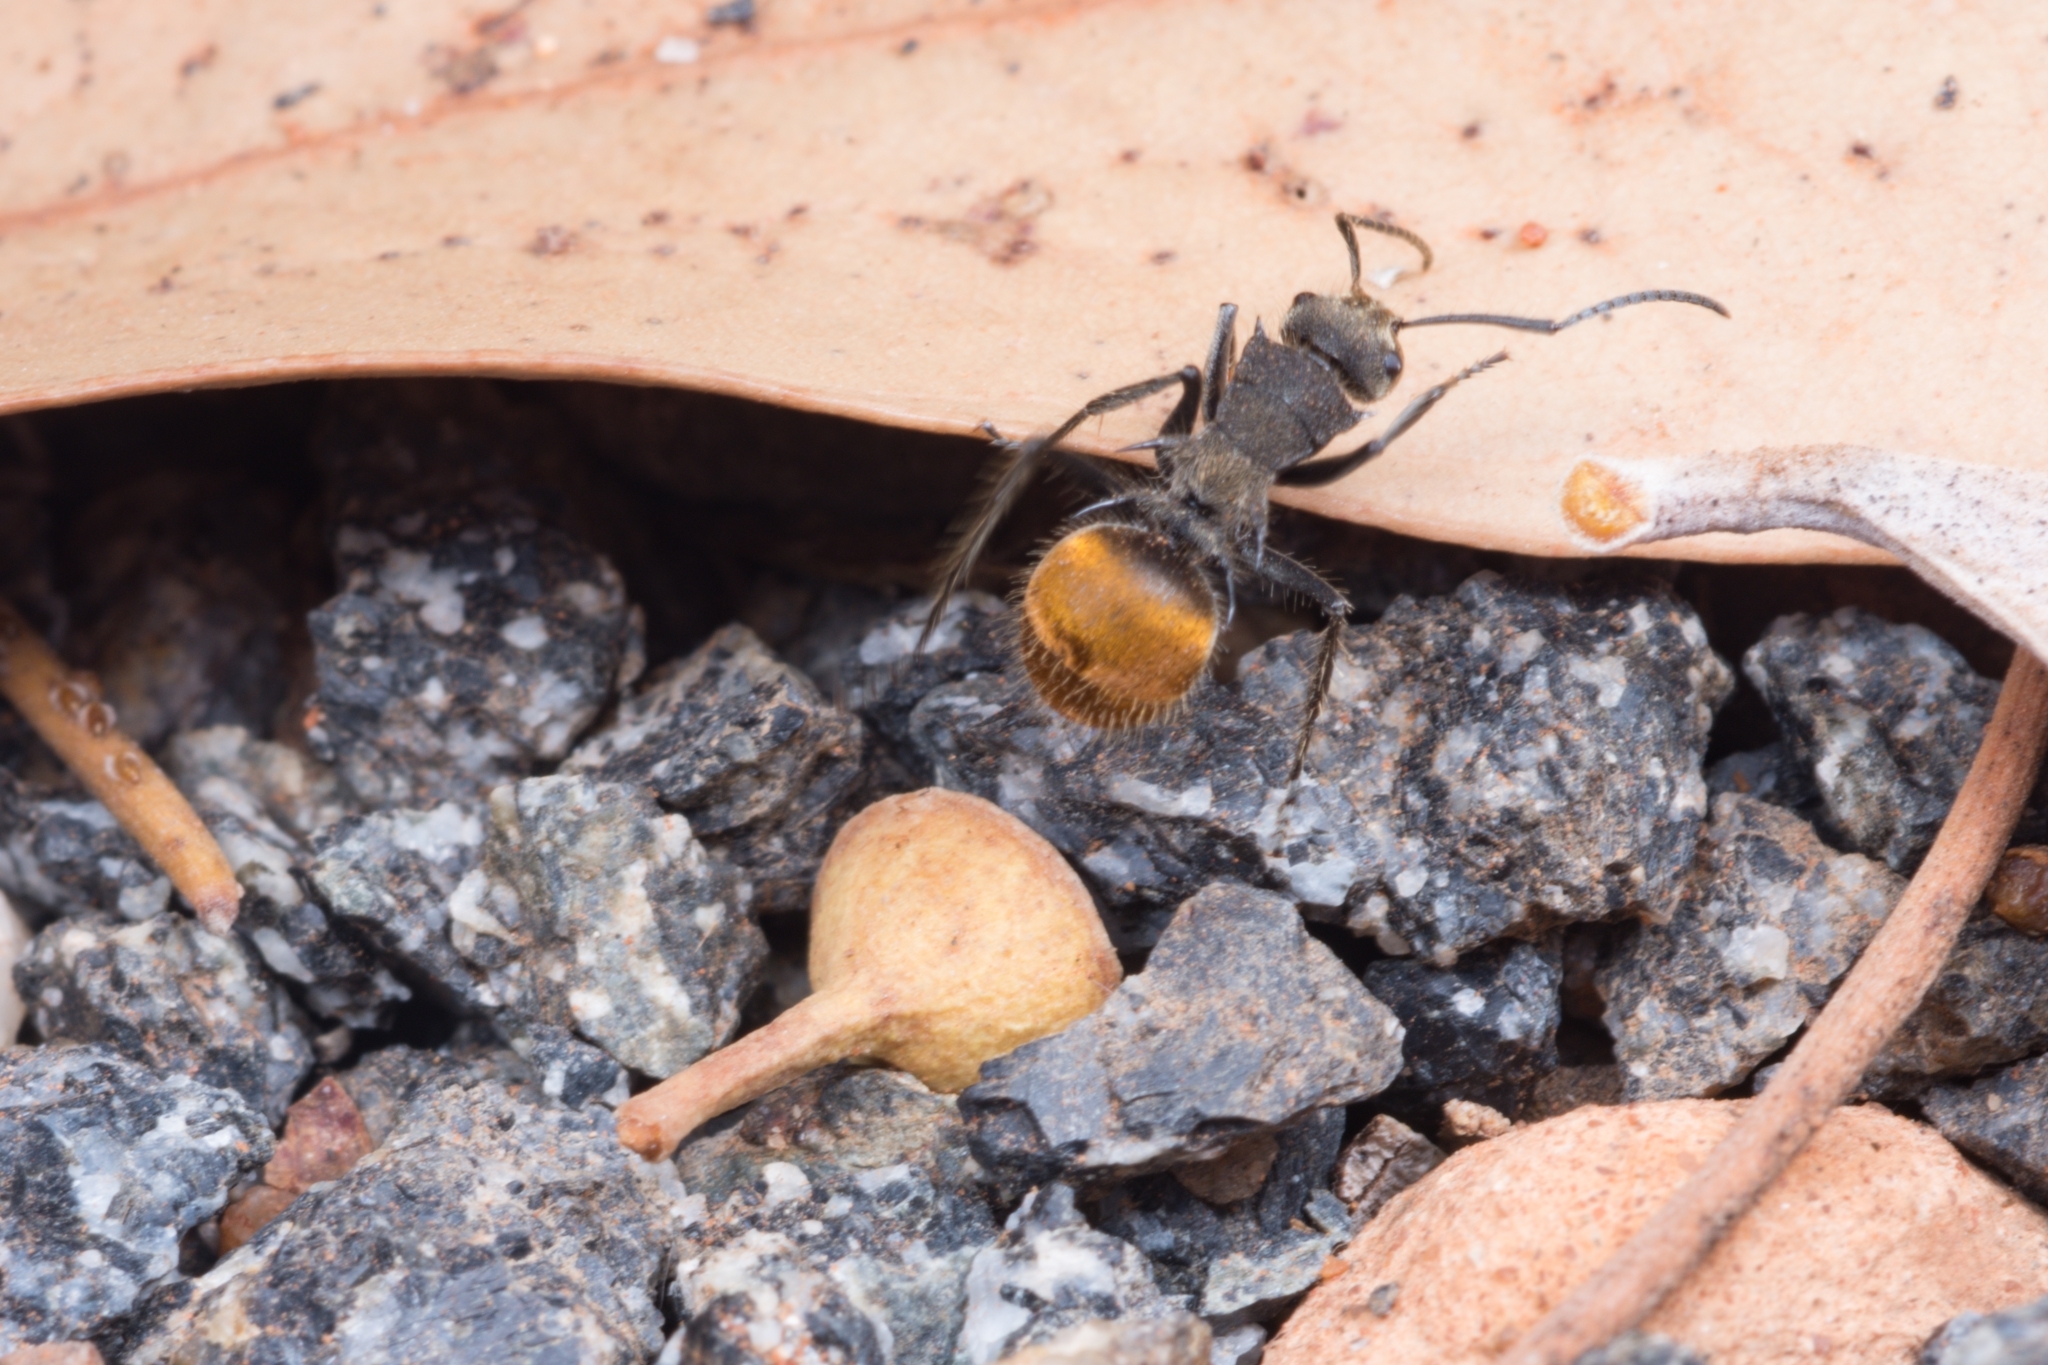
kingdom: Animalia
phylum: Arthropoda
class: Insecta
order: Hymenoptera
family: Formicidae
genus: Polyrhachis
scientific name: Polyrhachis aurea
